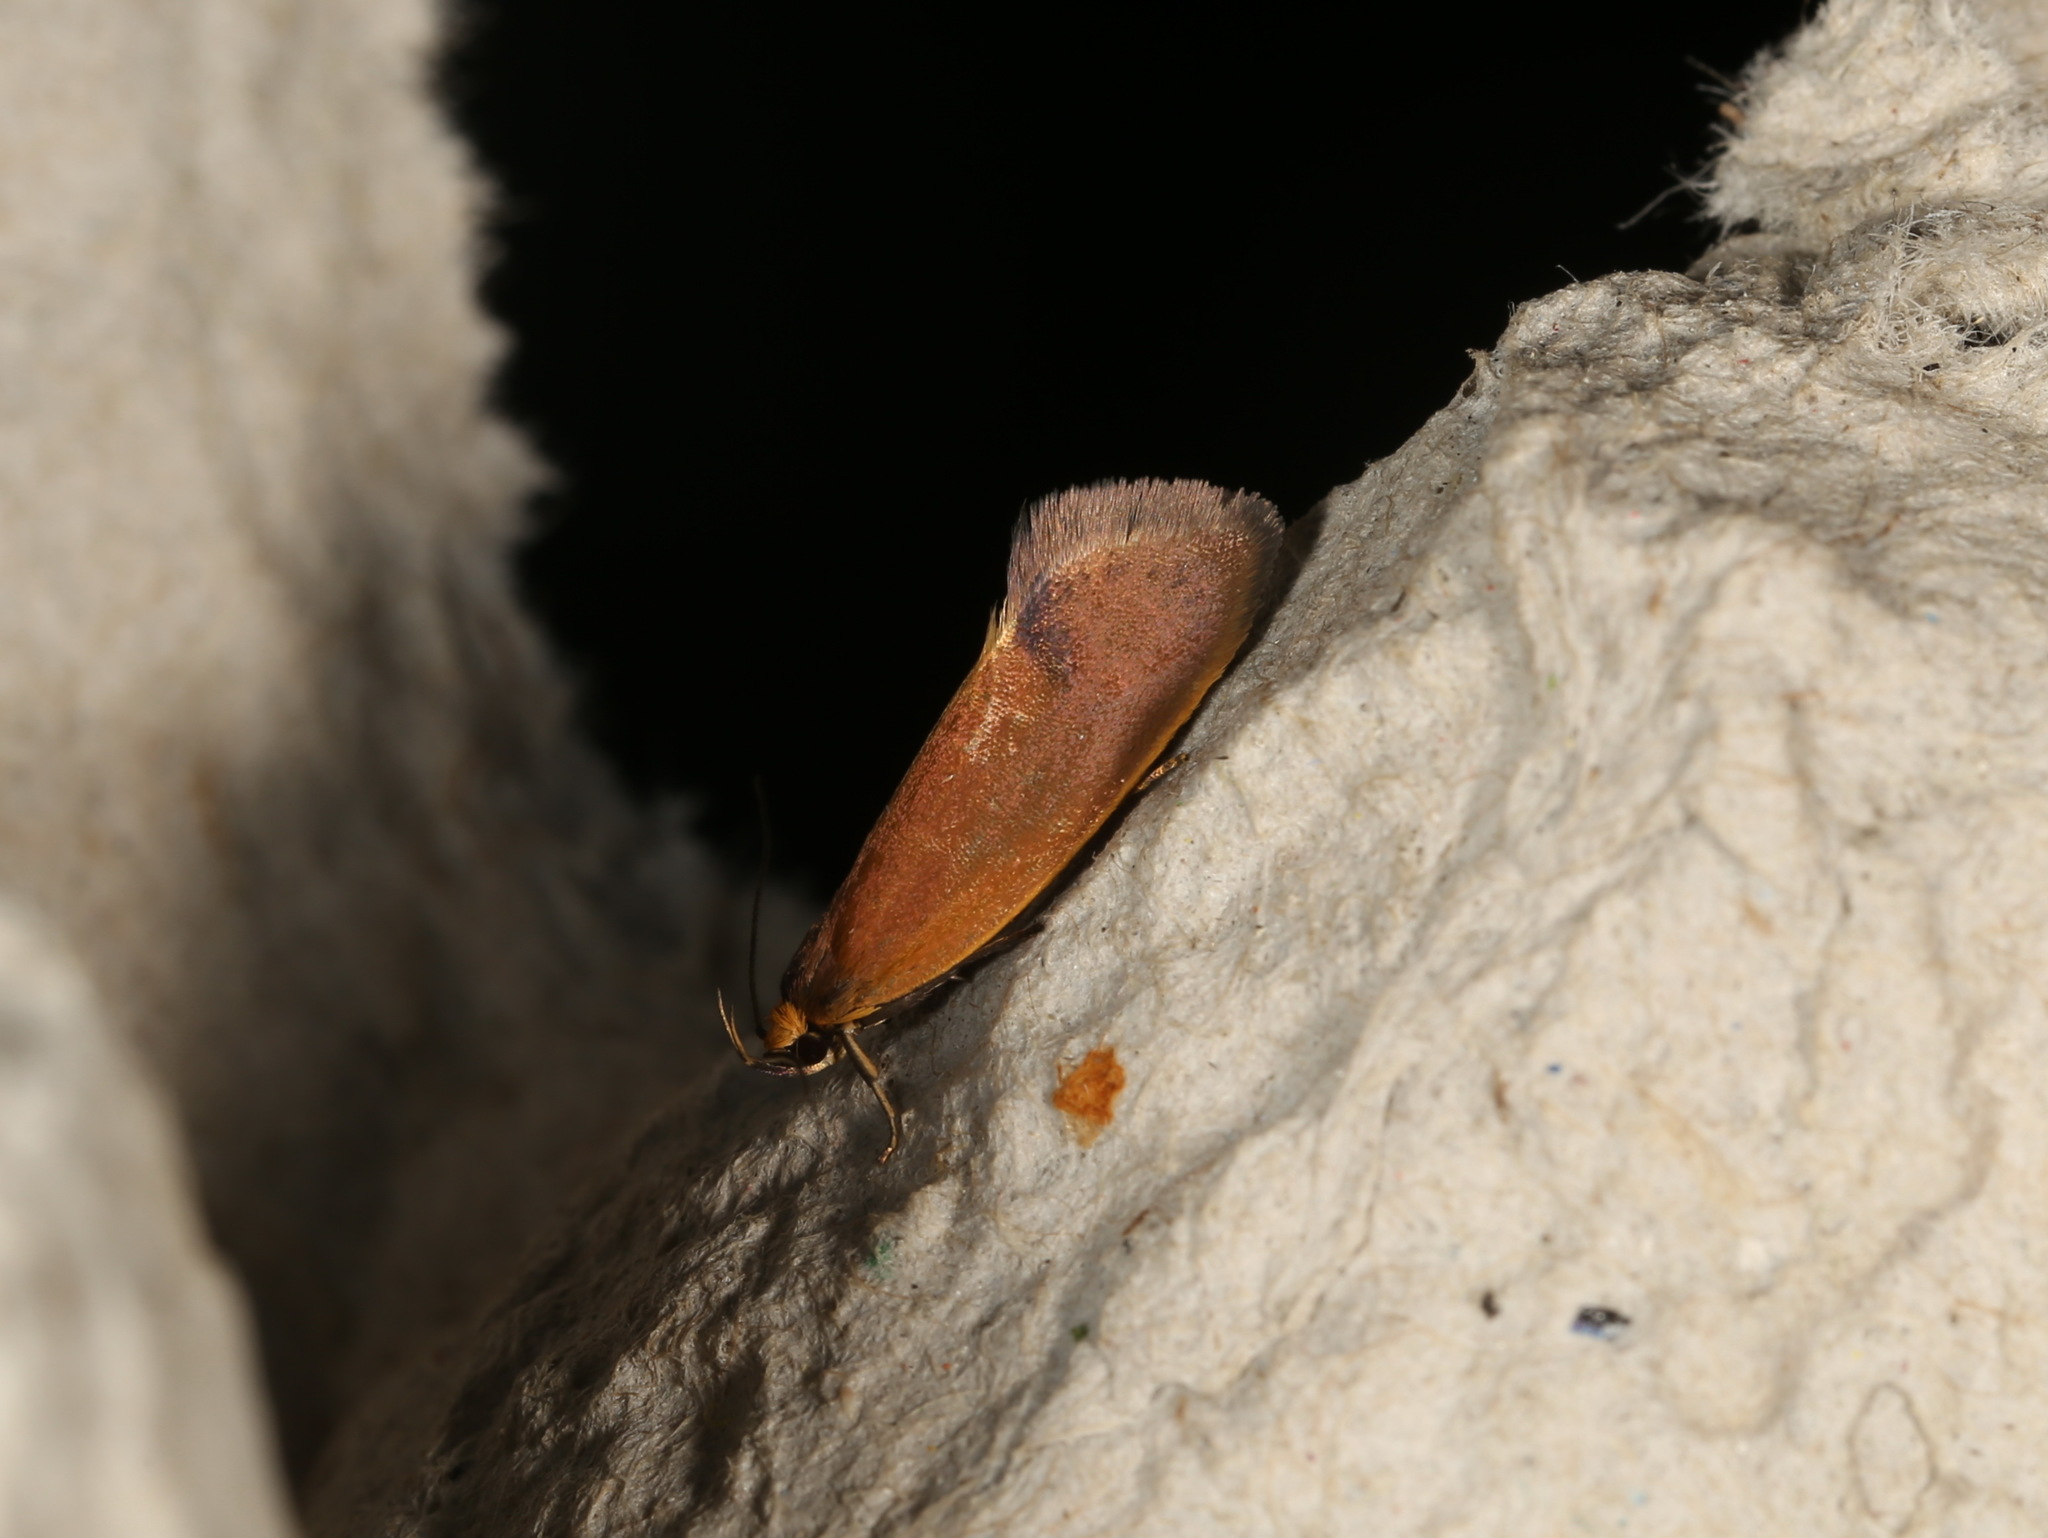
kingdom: Animalia
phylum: Arthropoda
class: Insecta
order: Lepidoptera
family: Oecophoridae
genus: Delexocha
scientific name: Delexocha ochrocausta
